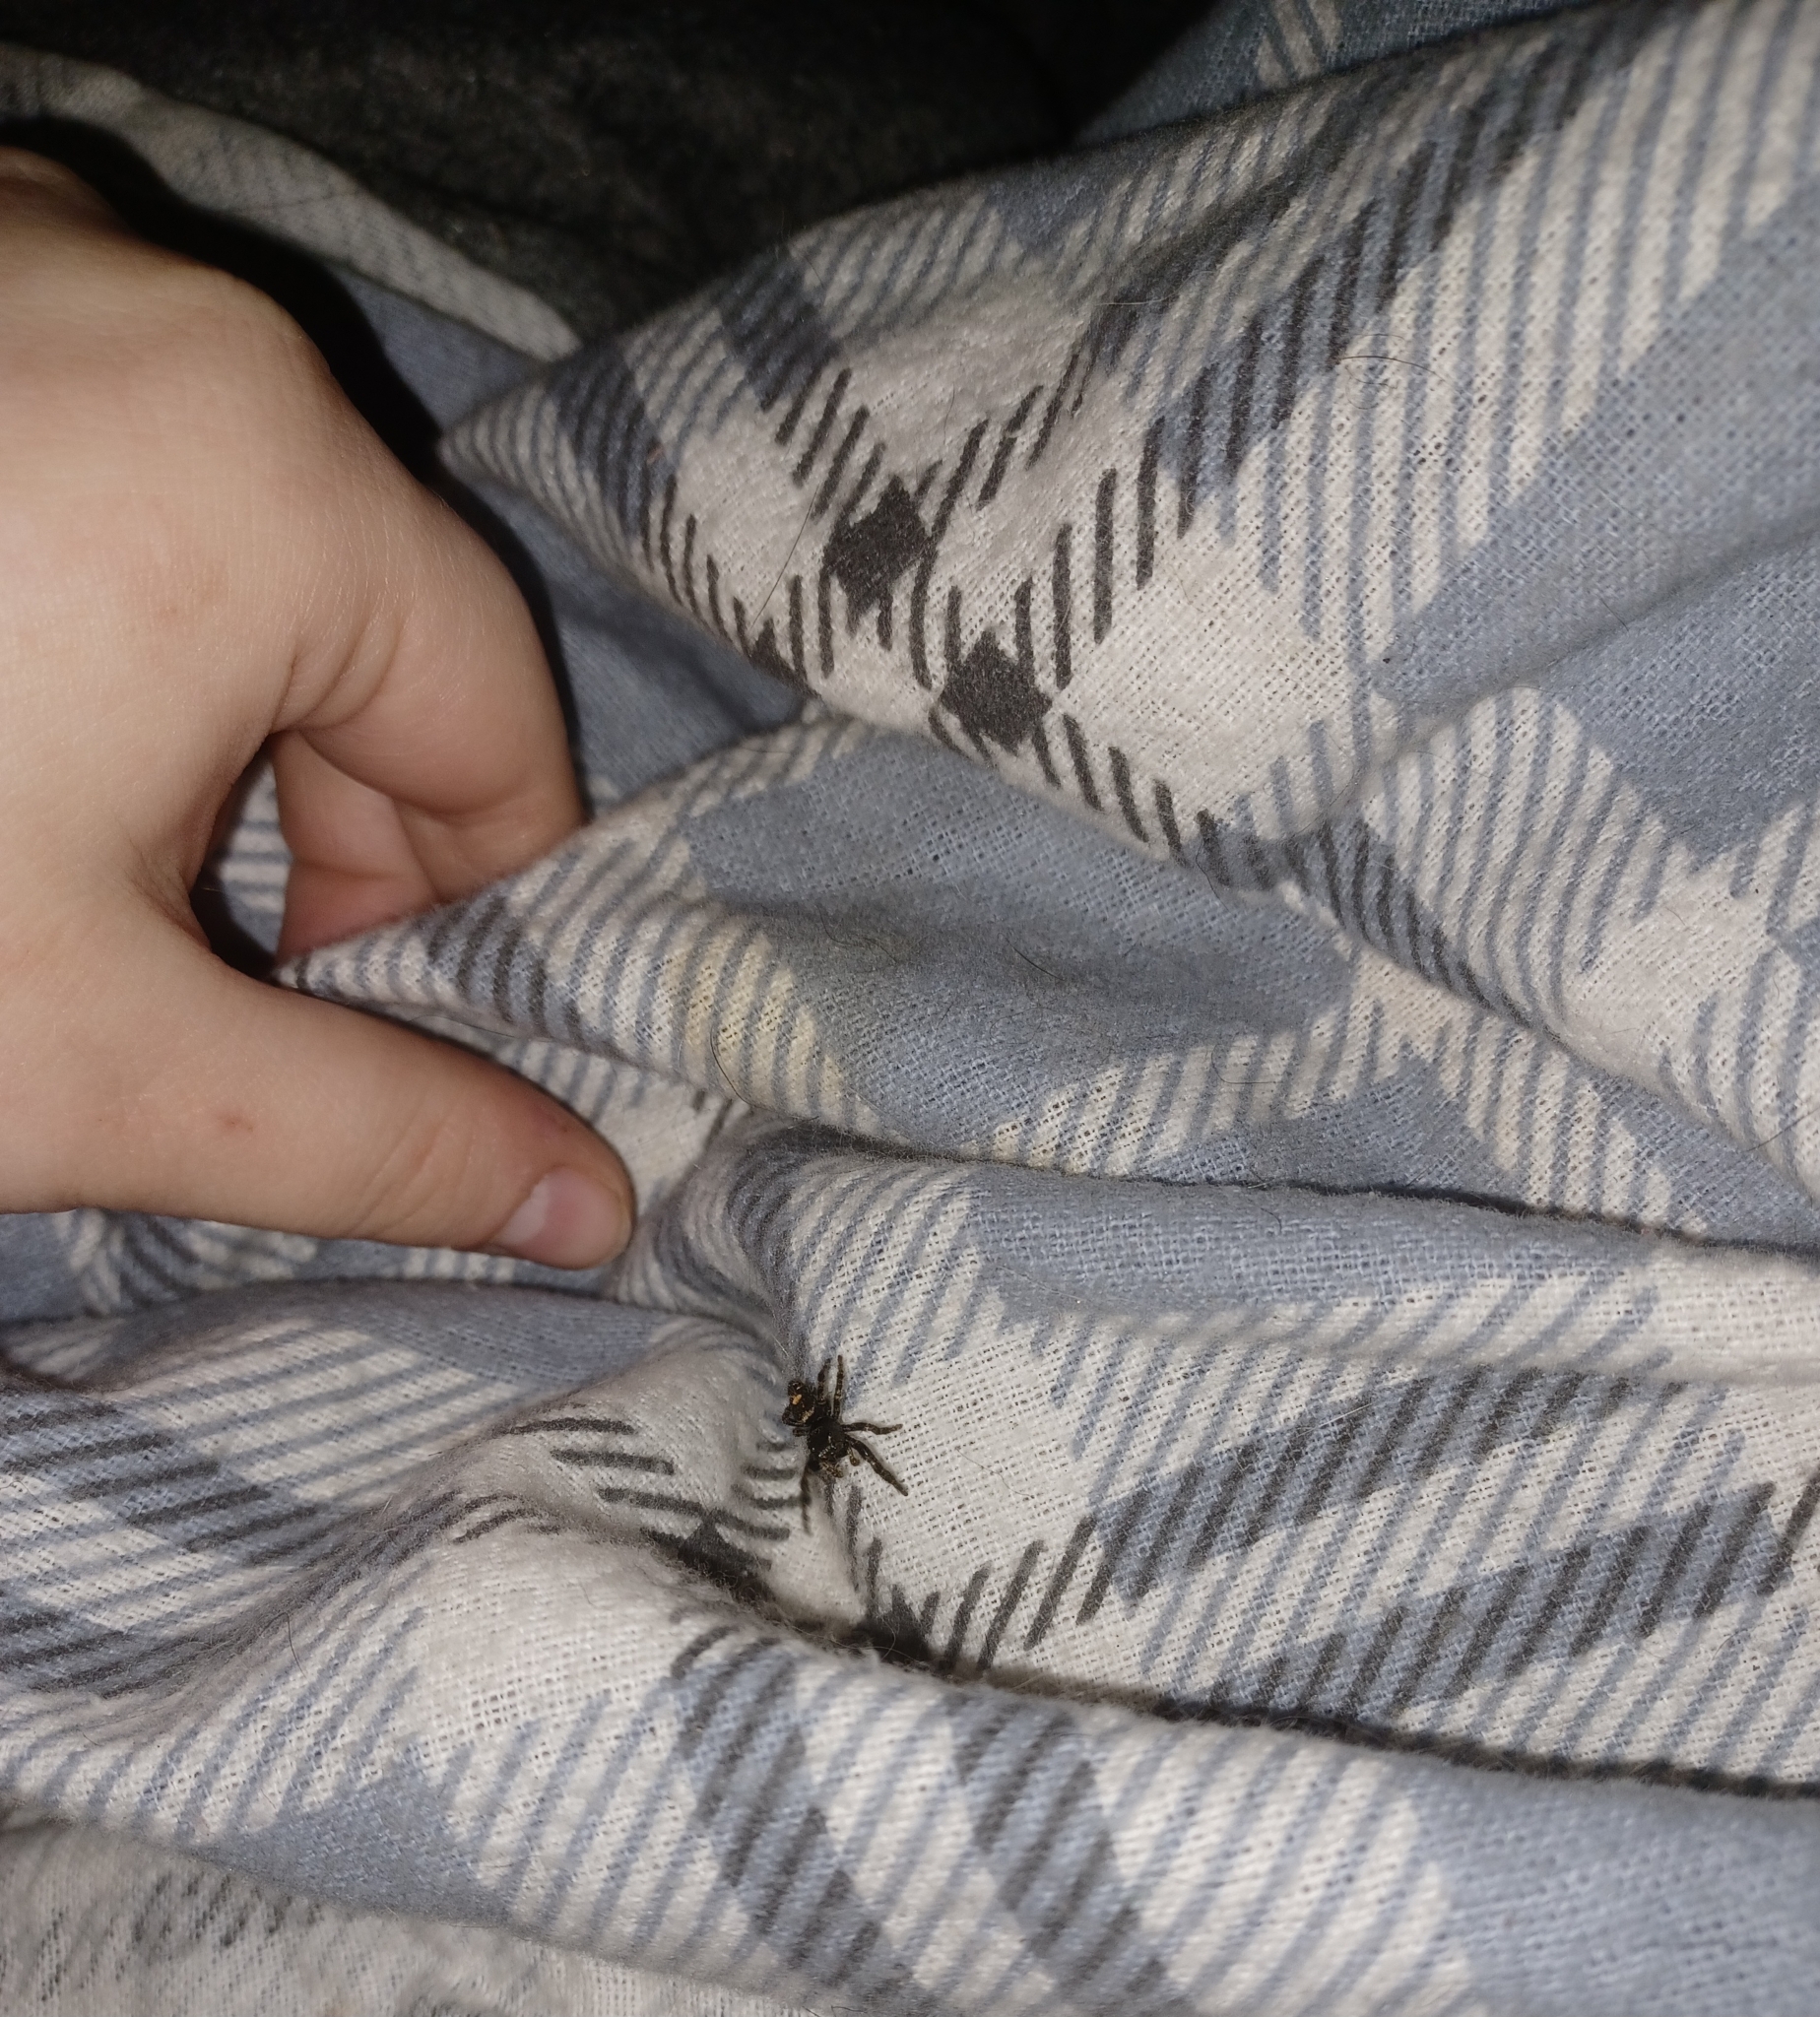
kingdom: Animalia
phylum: Arthropoda
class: Arachnida
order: Araneae
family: Salticidae
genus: Phidippus
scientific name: Phidippus audax
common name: Bold jumper
